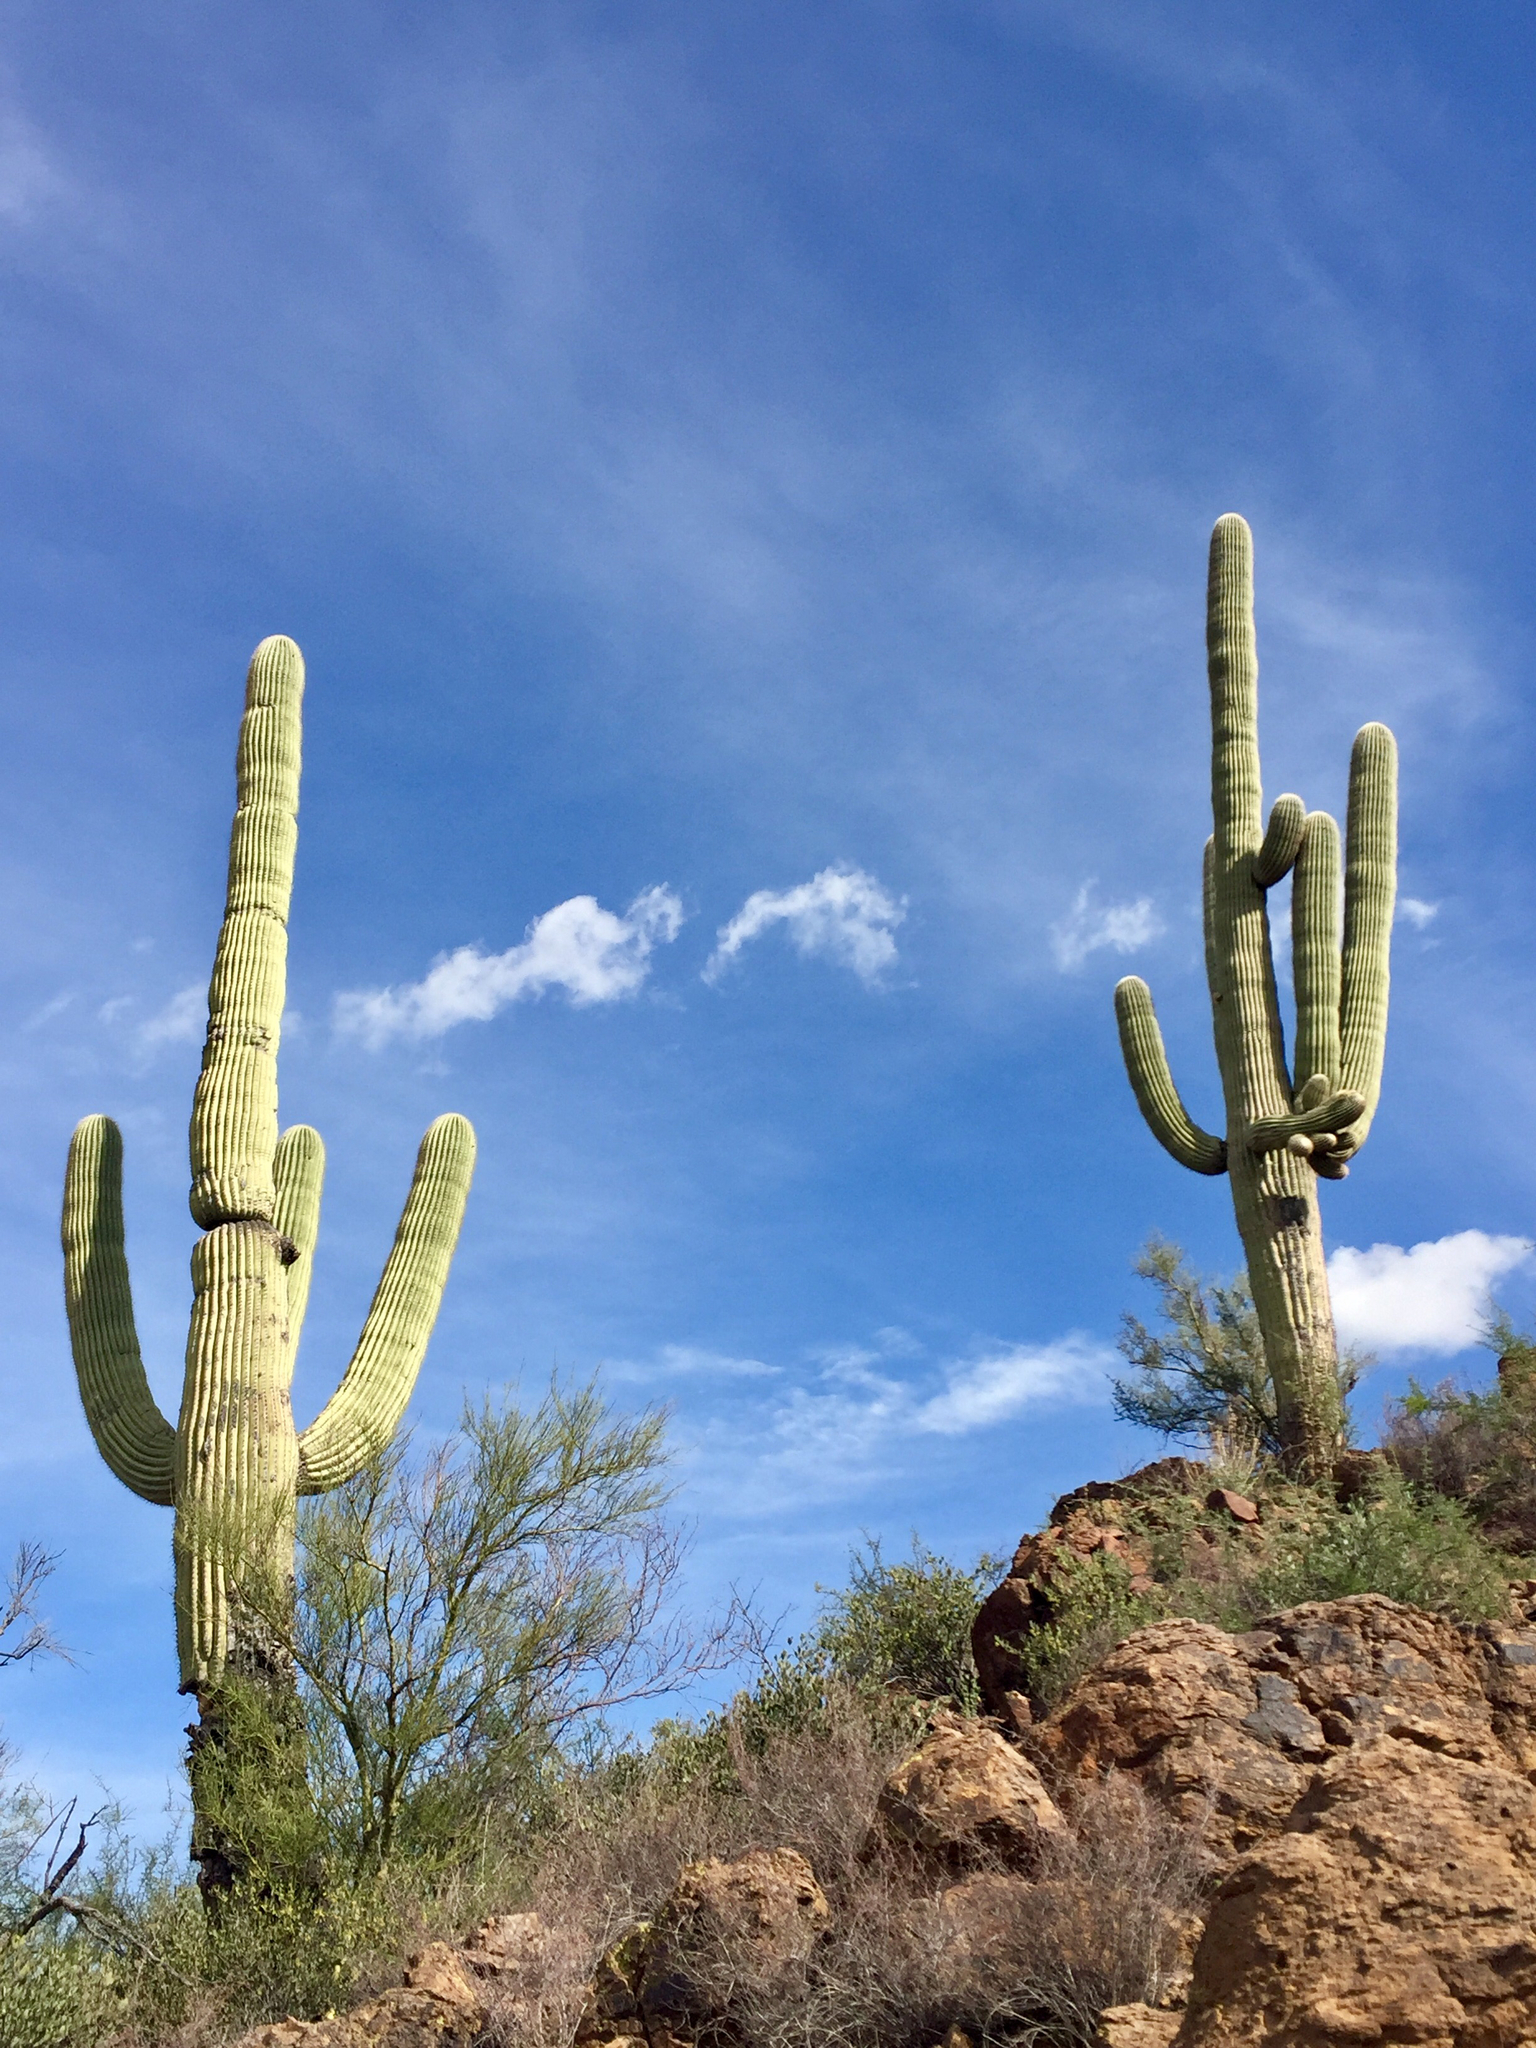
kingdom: Plantae
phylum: Tracheophyta
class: Magnoliopsida
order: Caryophyllales
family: Cactaceae
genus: Carnegiea
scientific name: Carnegiea gigantea
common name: Saguaro
